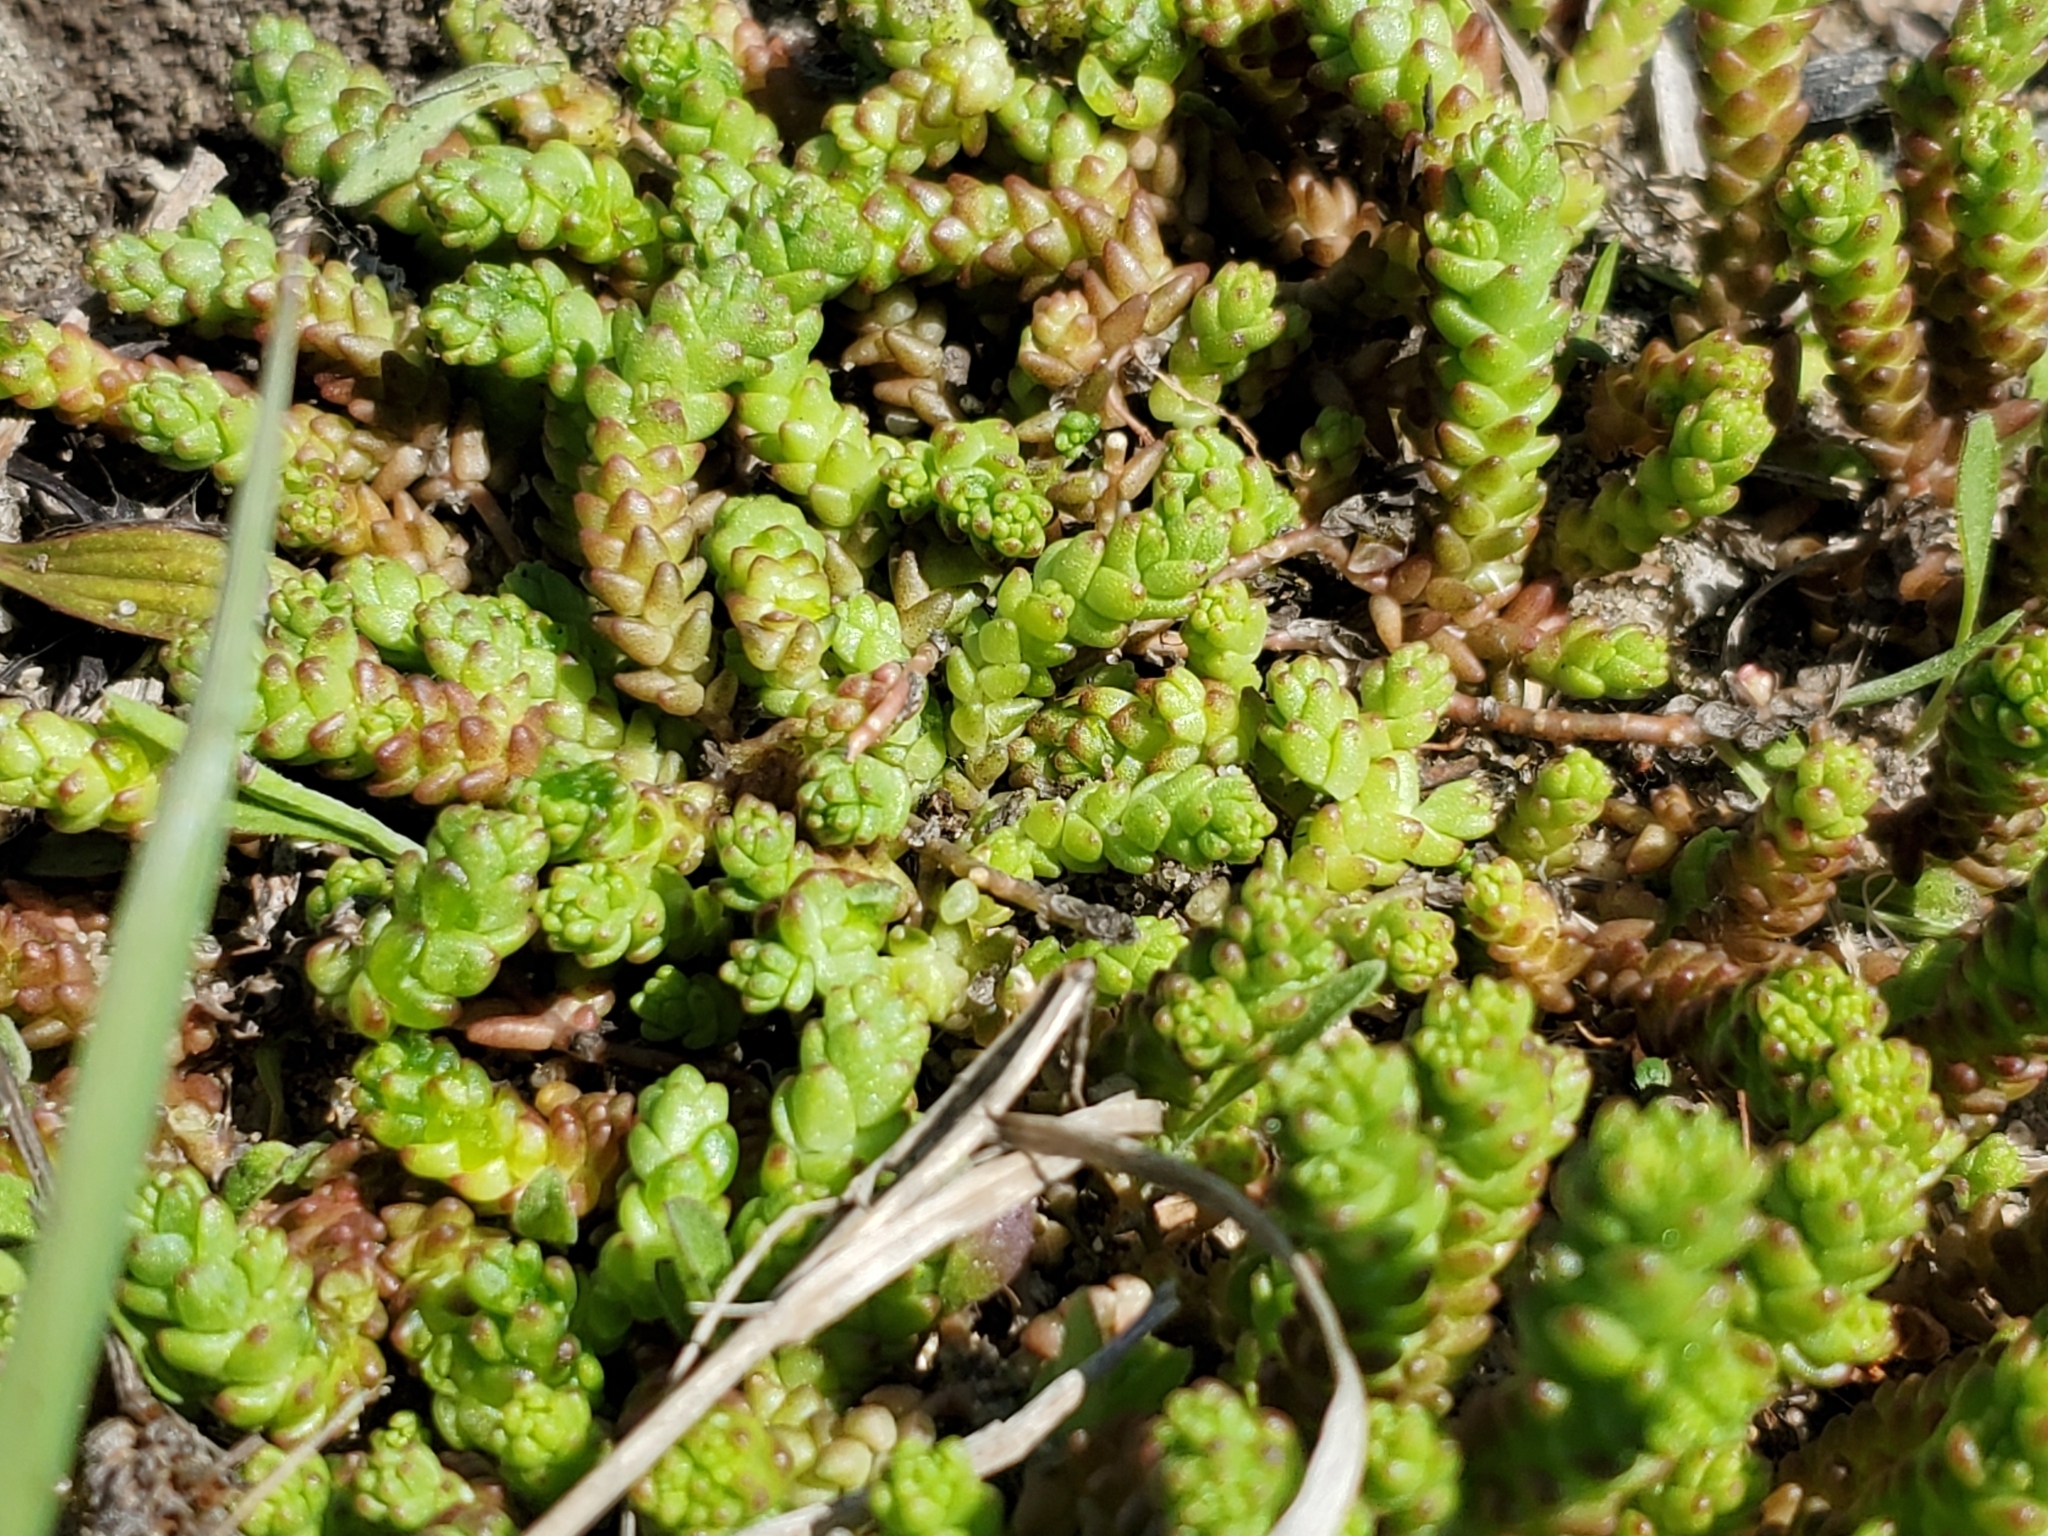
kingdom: Plantae
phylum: Tracheophyta
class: Magnoliopsida
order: Saxifragales
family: Crassulaceae
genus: Sedum
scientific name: Sedum acre
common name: Biting stonecrop
